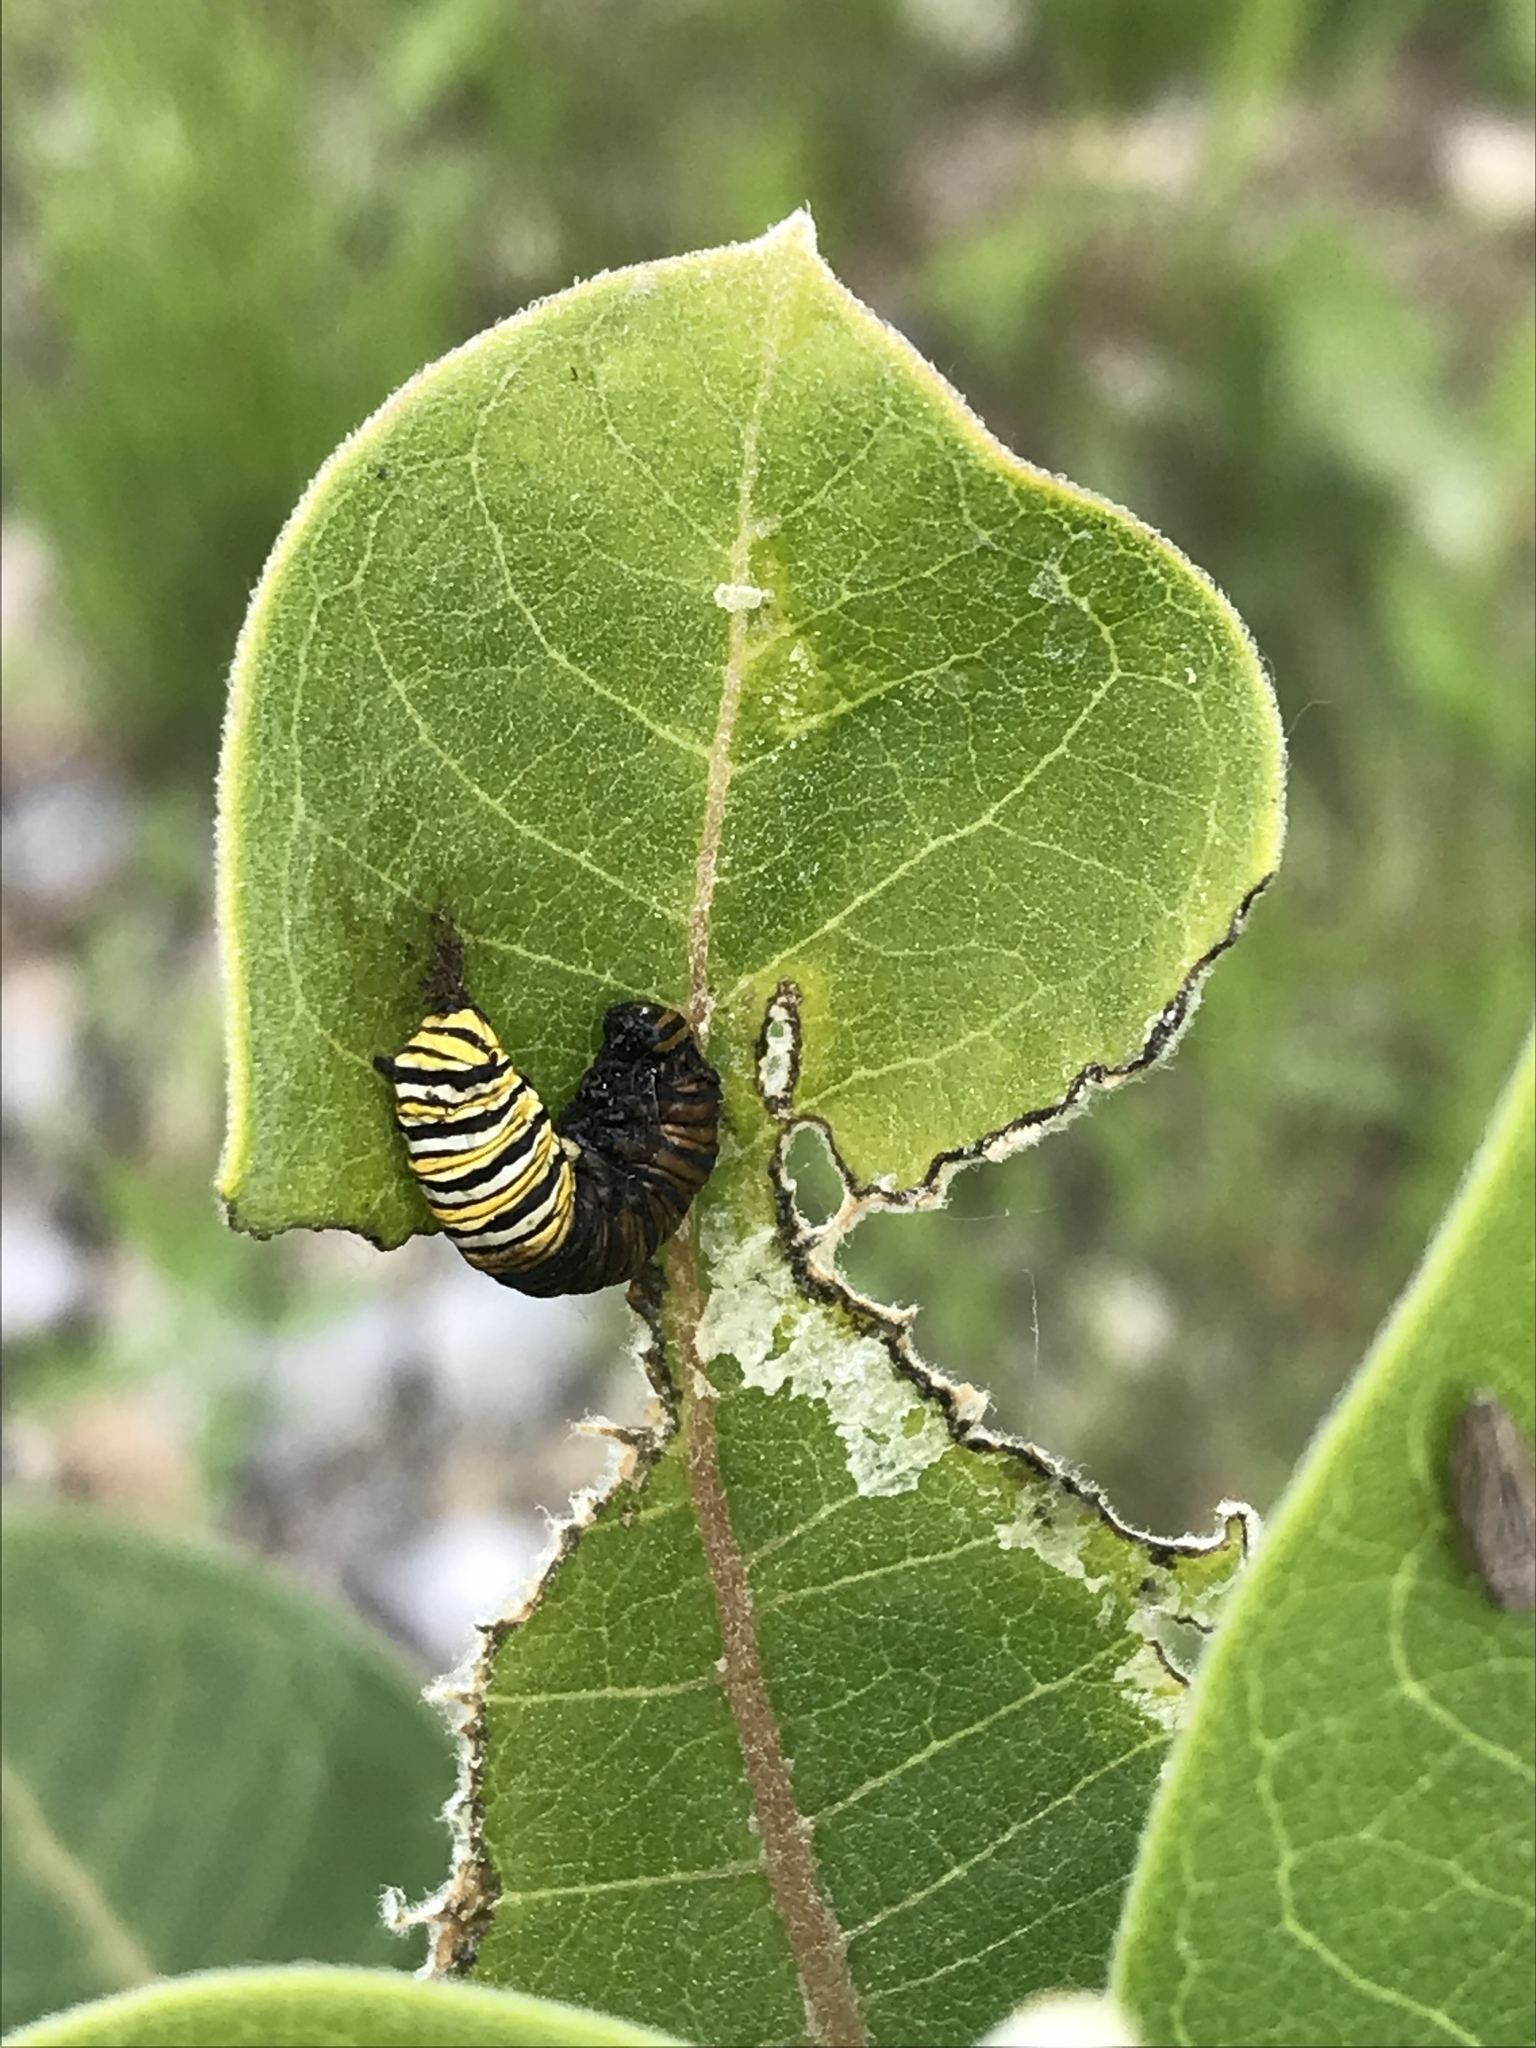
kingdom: Animalia
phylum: Arthropoda
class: Insecta
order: Lepidoptera
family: Nymphalidae
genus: Danaus
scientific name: Danaus plexippus
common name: Monarch
